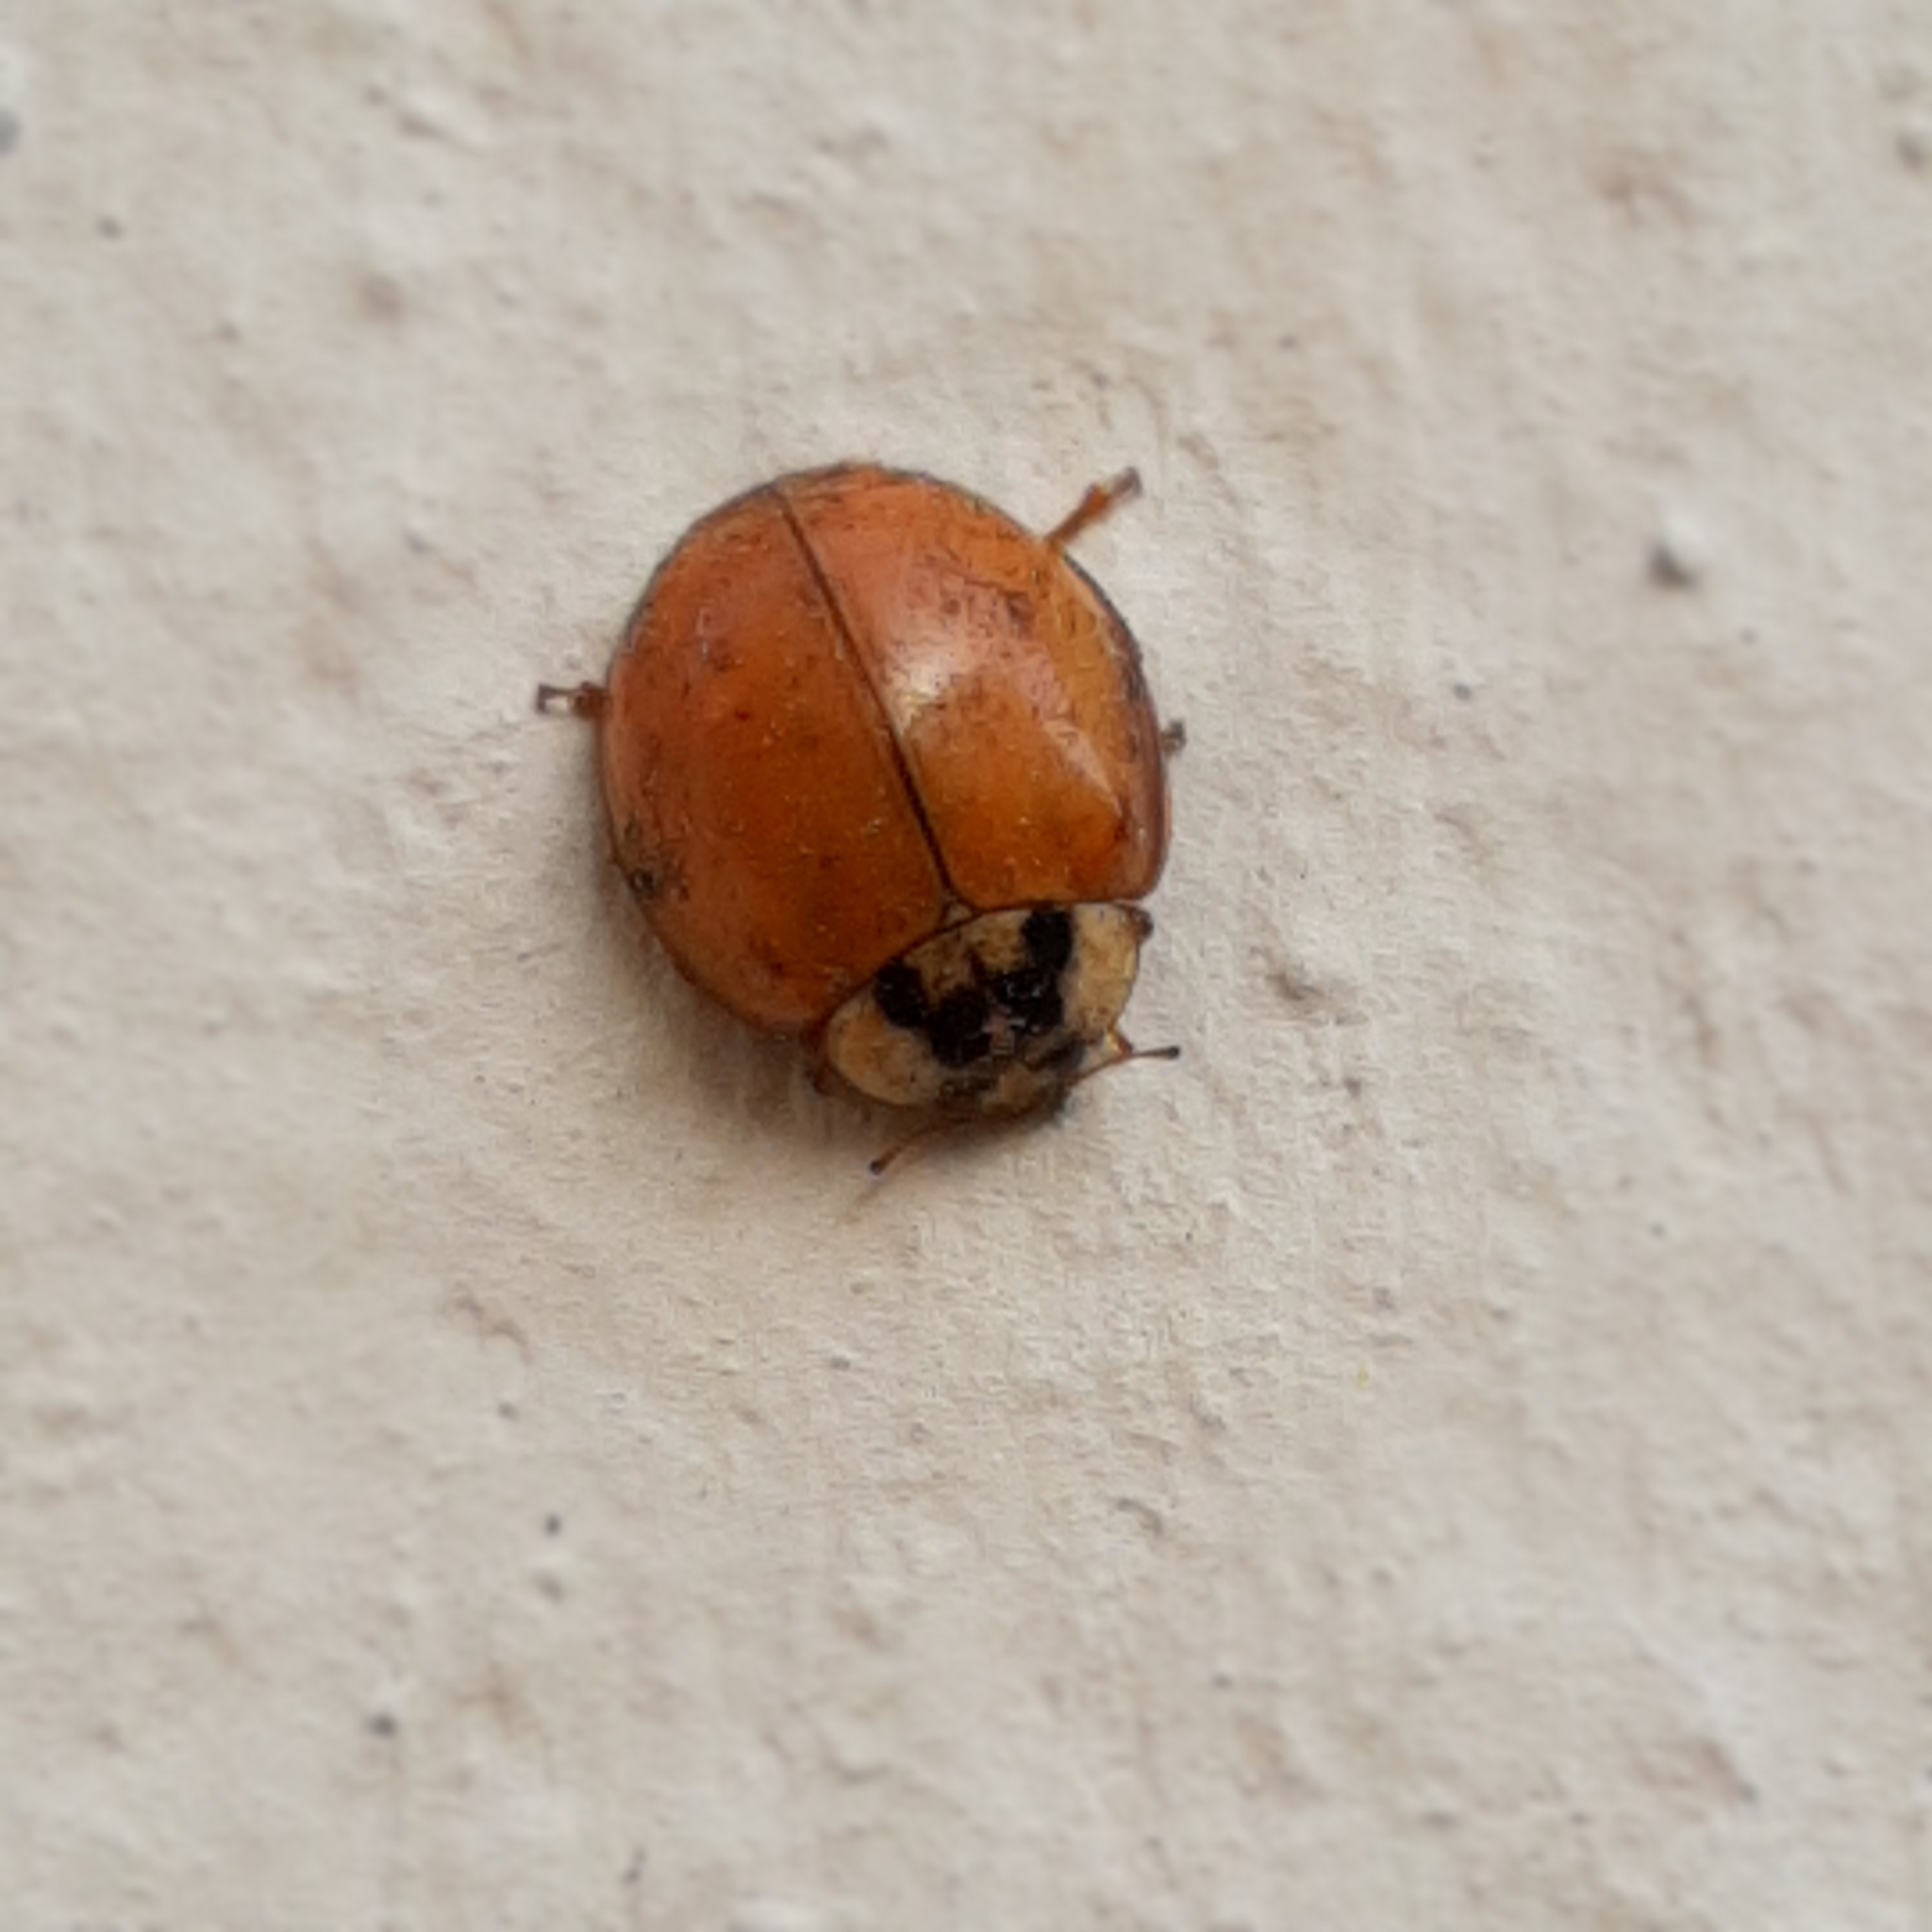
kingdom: Animalia
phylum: Arthropoda
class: Insecta
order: Coleoptera
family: Coccinellidae
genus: Harmonia
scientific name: Harmonia axyridis
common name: Harlequin ladybird
